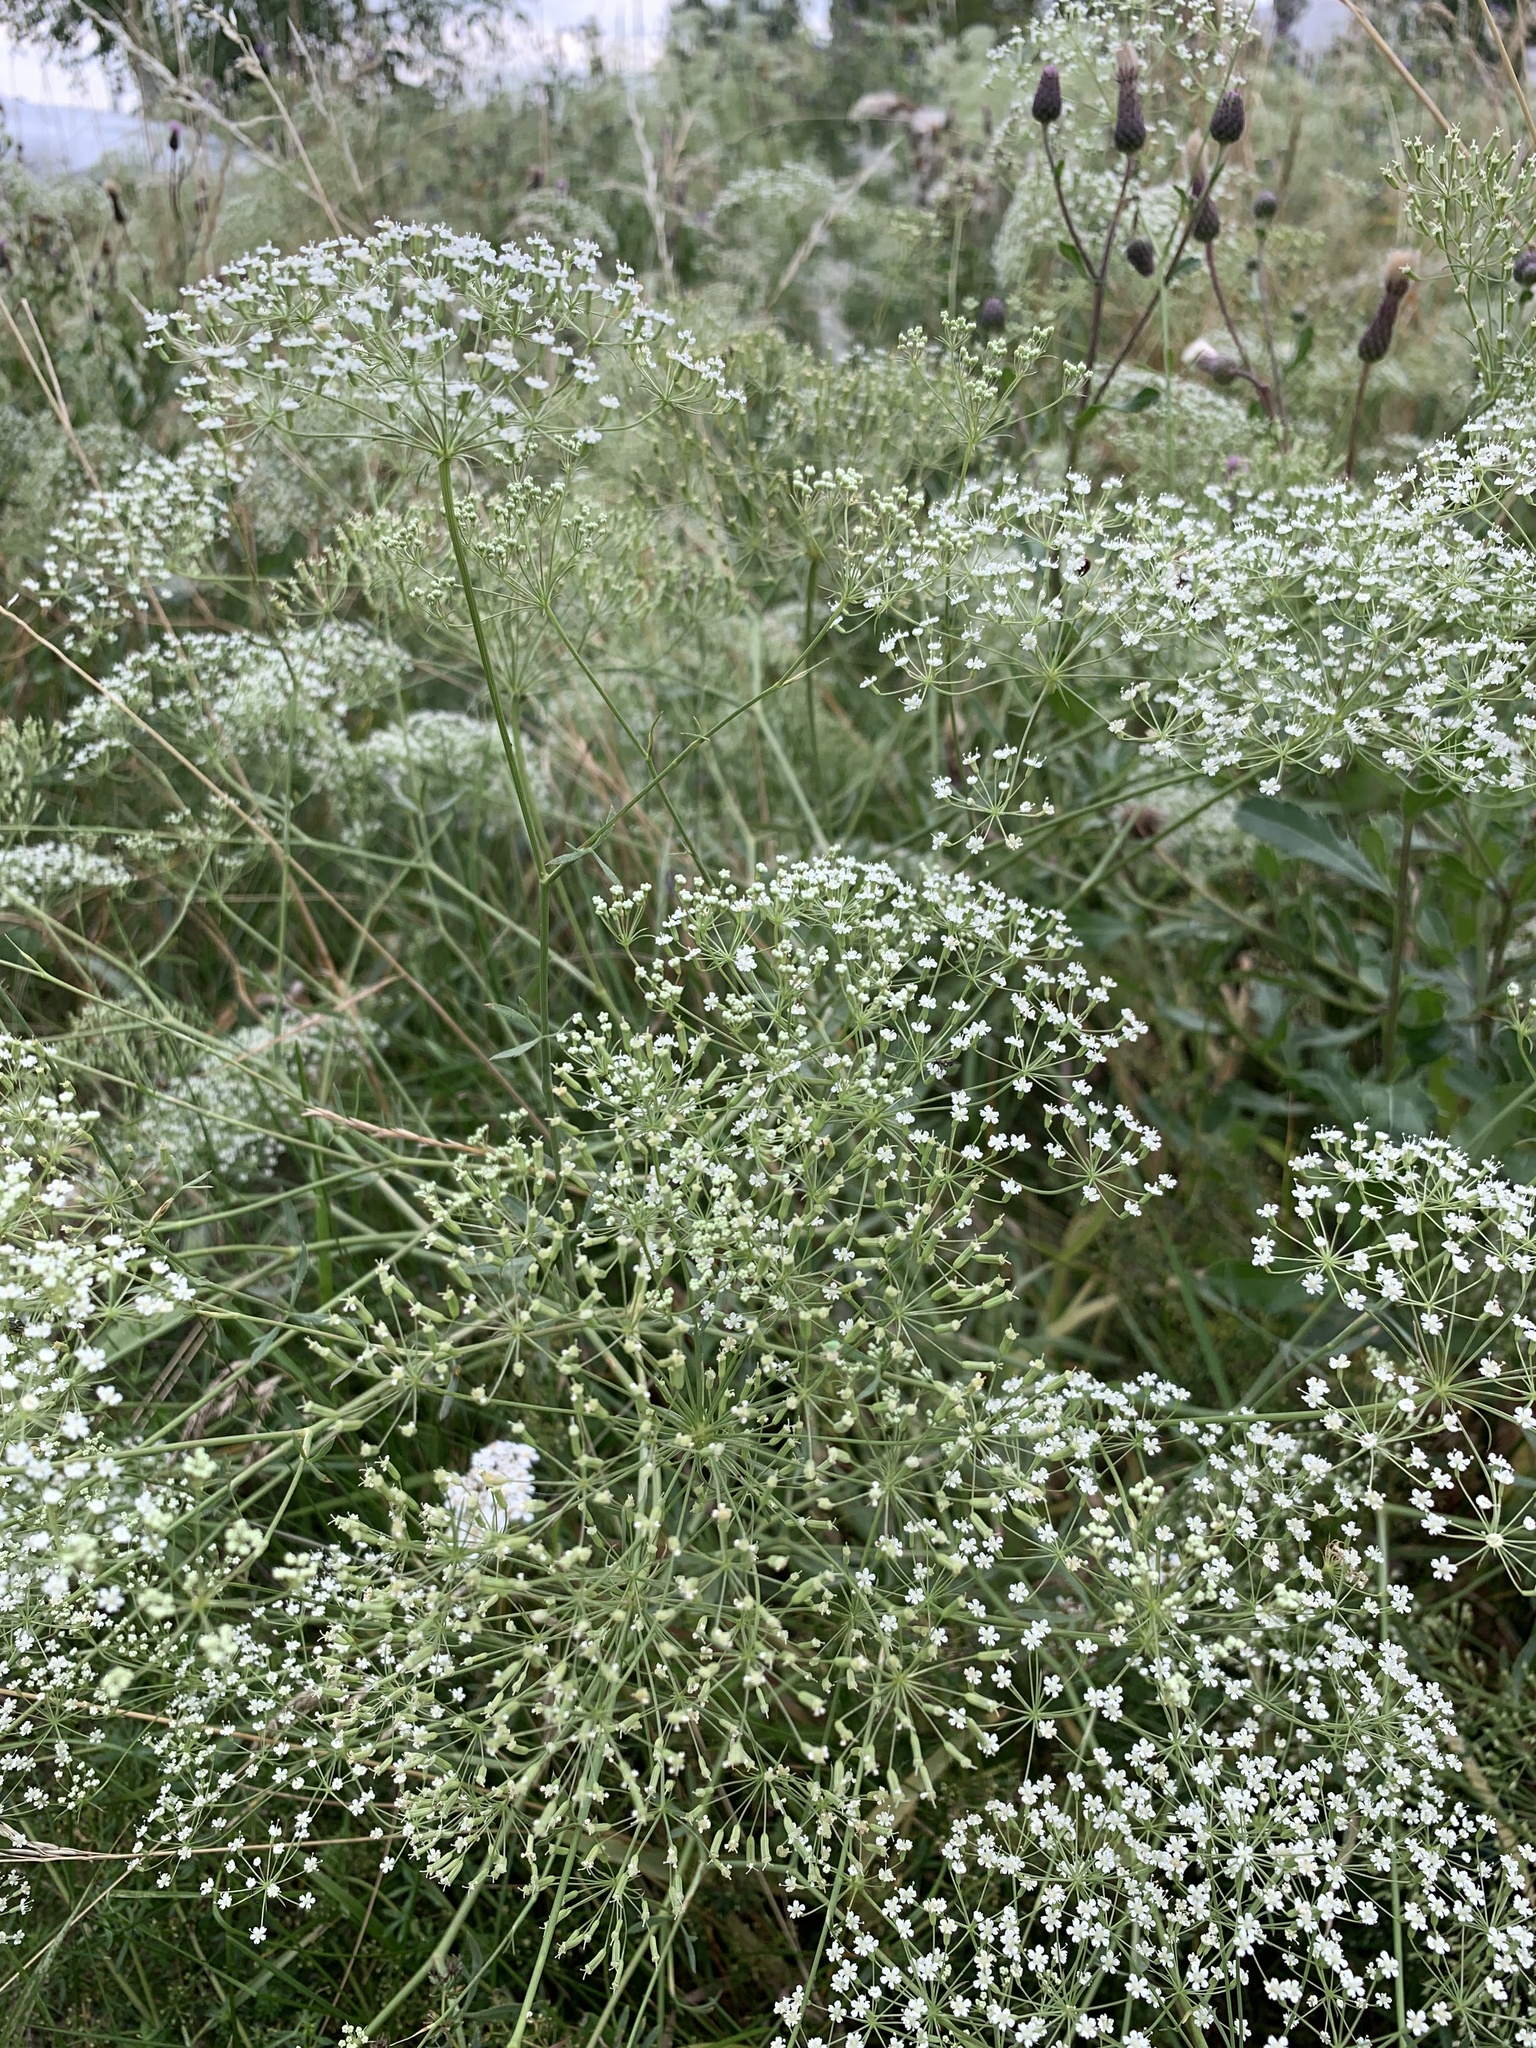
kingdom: Plantae
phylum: Tracheophyta
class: Magnoliopsida
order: Apiales
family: Apiaceae
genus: Falcaria
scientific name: Falcaria vulgaris
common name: Longleaf
